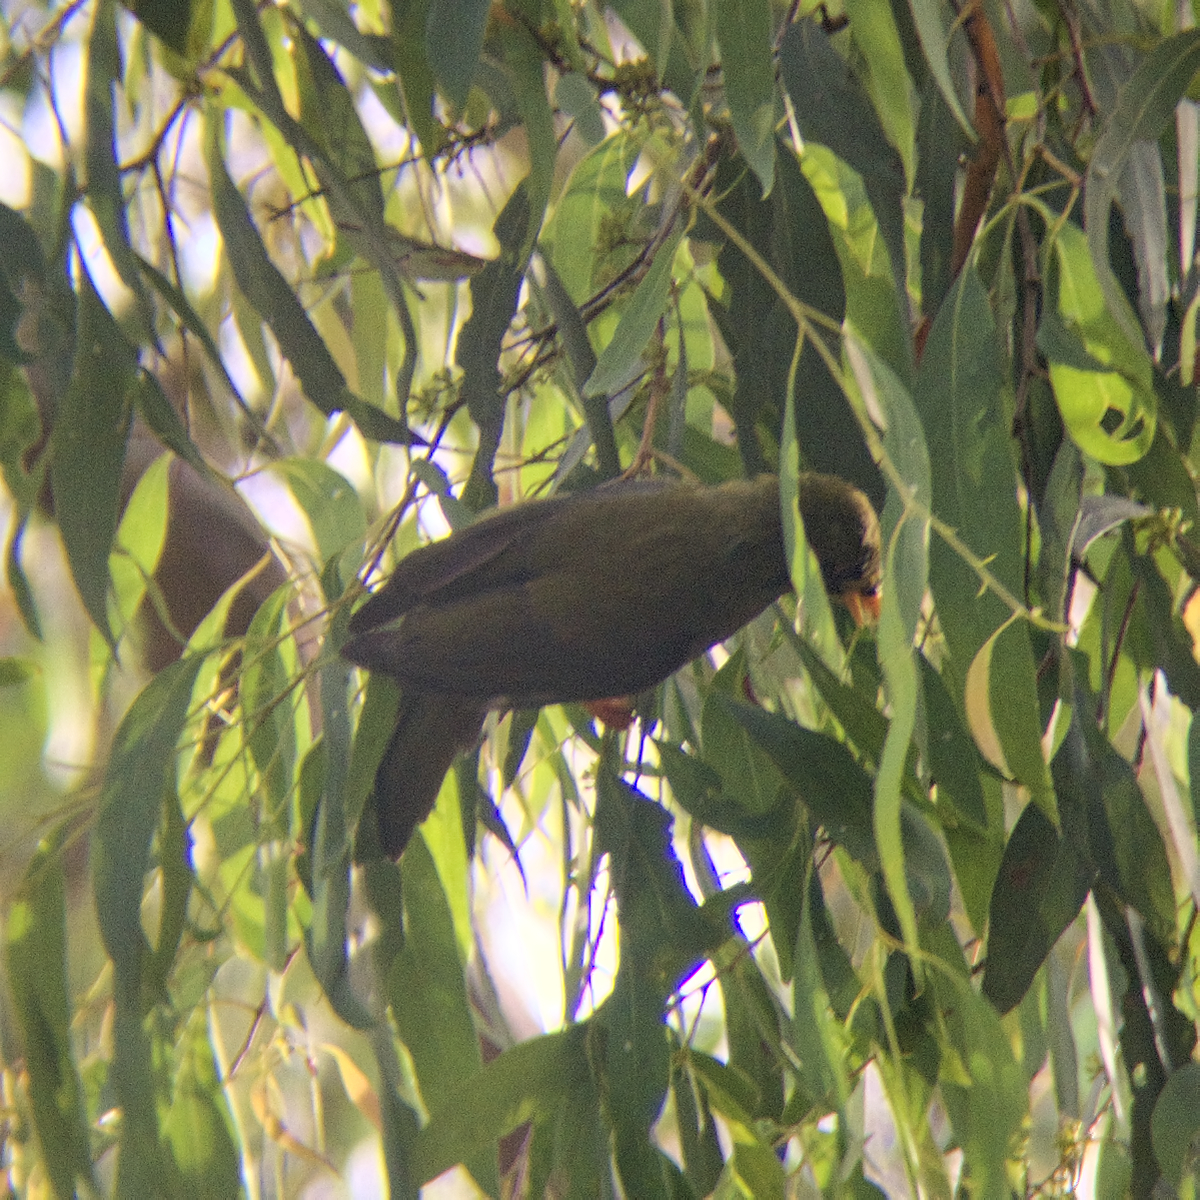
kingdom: Animalia
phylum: Chordata
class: Aves
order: Passeriformes
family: Meliphagidae
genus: Manorina
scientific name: Manorina melanophrys
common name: Bell miner
